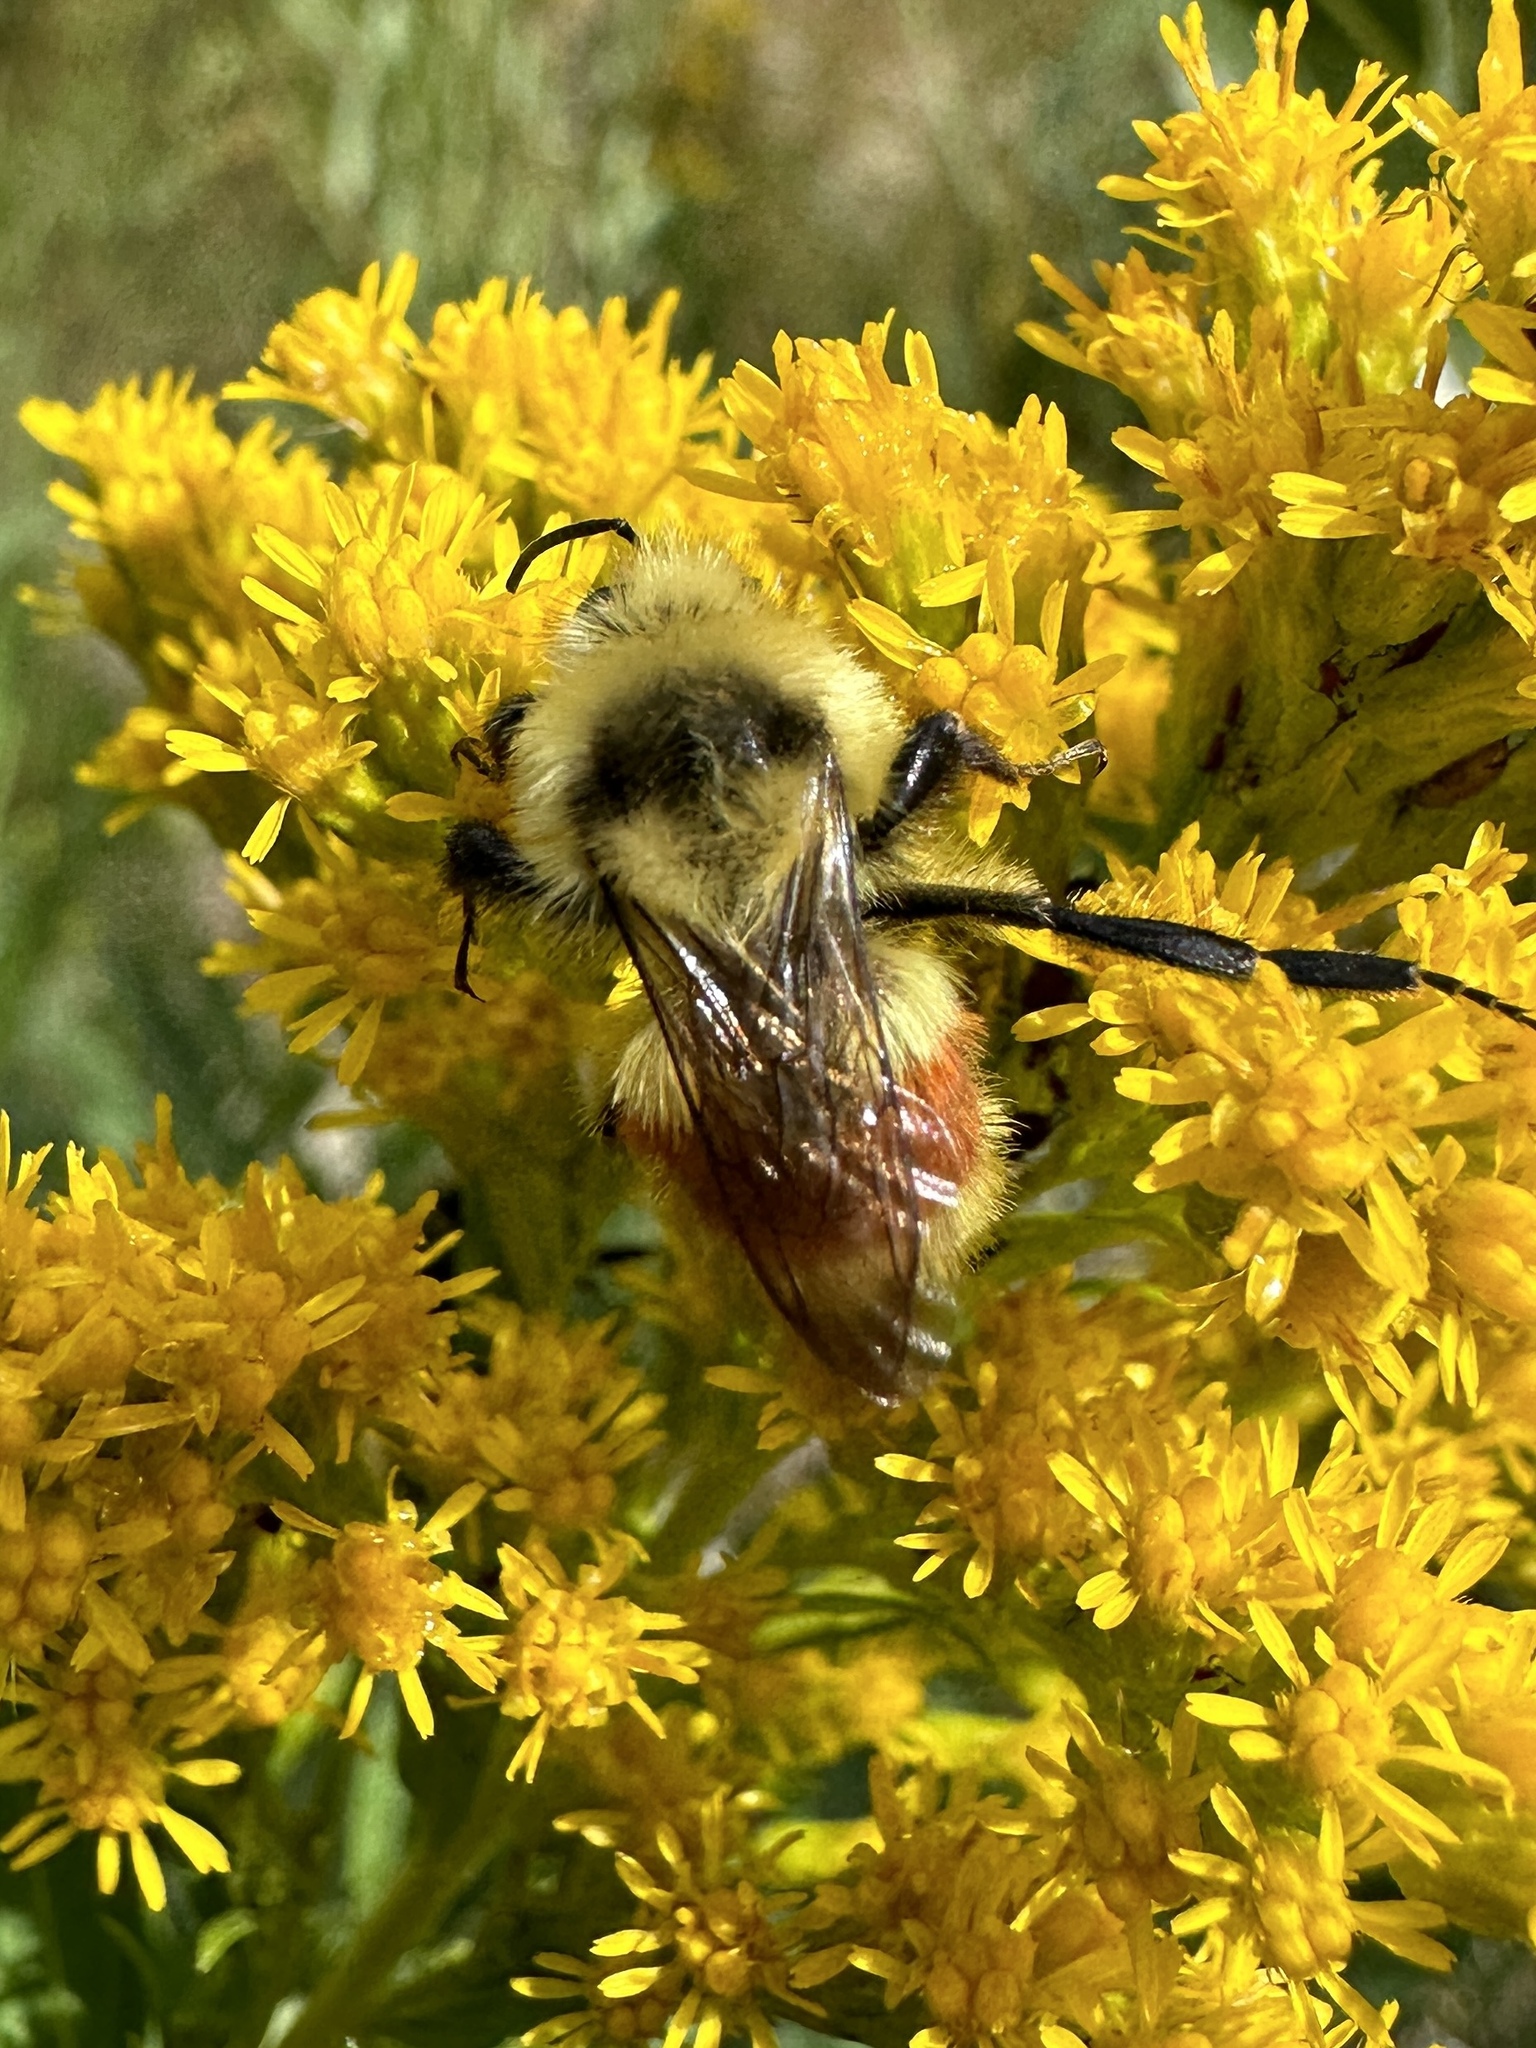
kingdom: Animalia
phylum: Arthropoda
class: Insecta
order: Hymenoptera
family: Apidae
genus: Bombus
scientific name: Bombus huntii
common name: Hunt bumble bee
